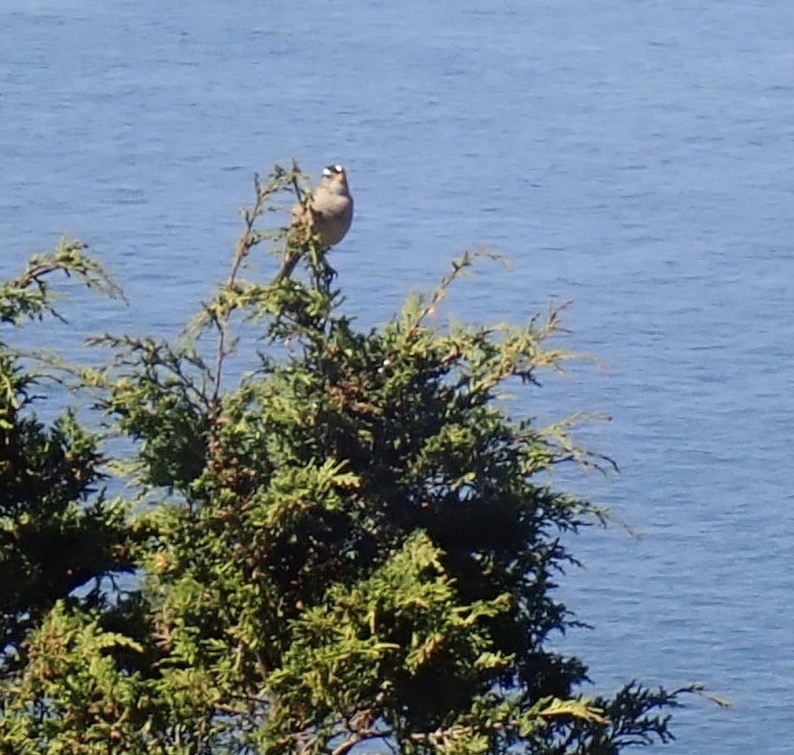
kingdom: Animalia
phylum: Chordata
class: Aves
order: Passeriformes
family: Passerellidae
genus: Zonotrichia
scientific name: Zonotrichia leucophrys
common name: White-crowned sparrow
